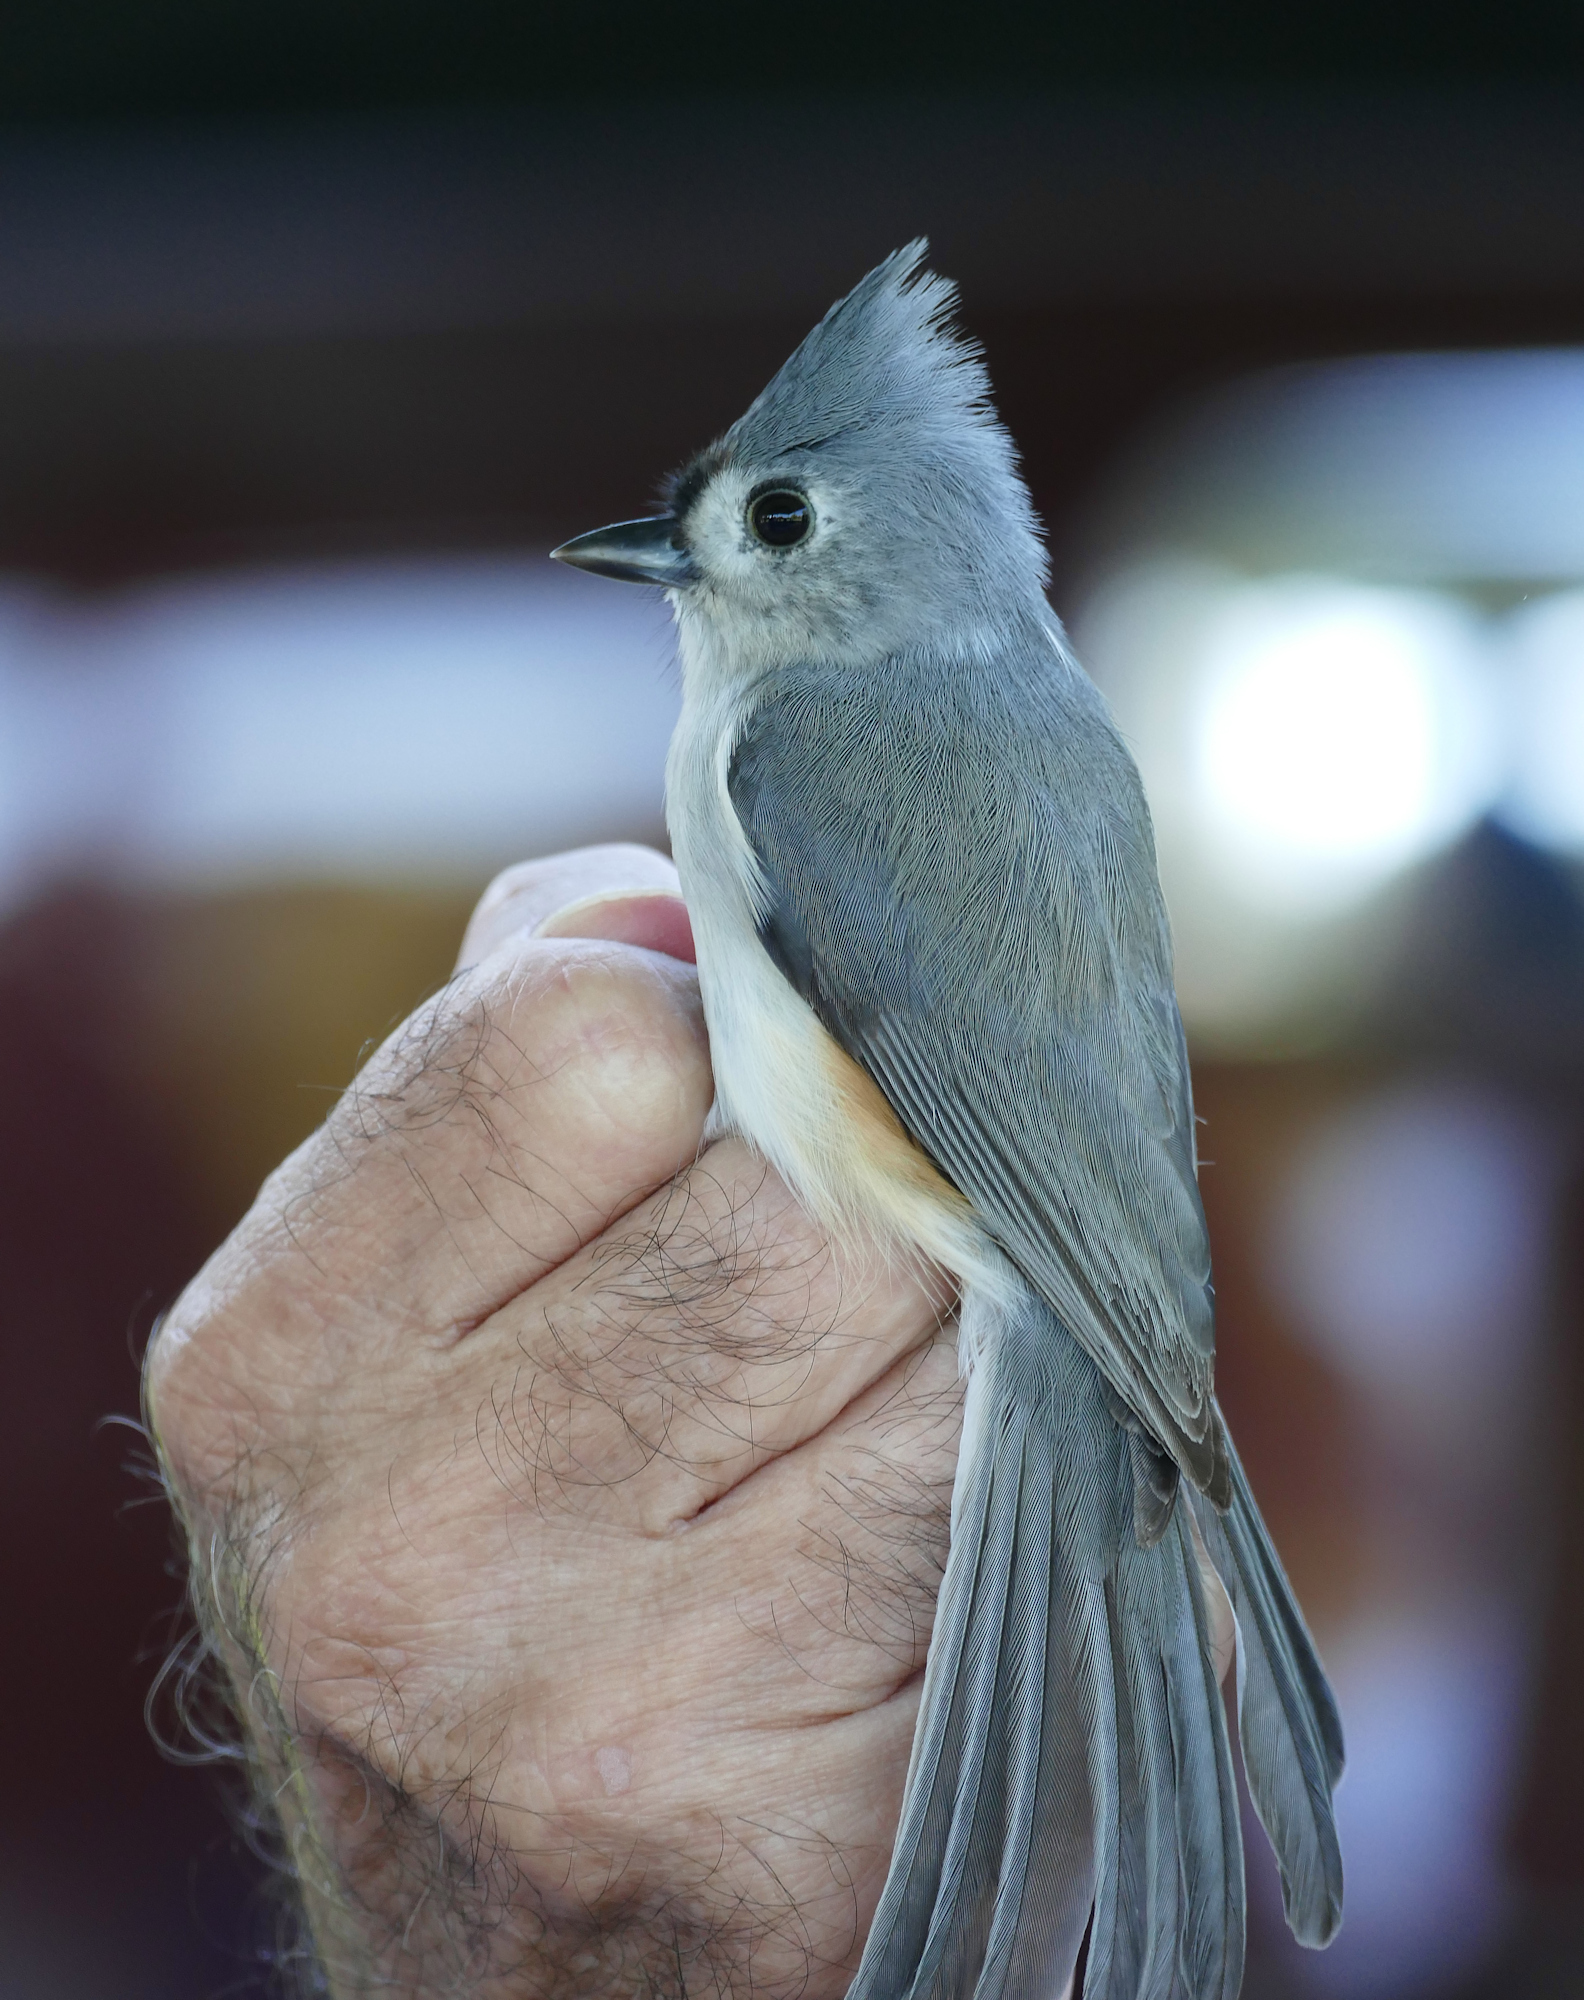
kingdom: Animalia
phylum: Chordata
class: Aves
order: Passeriformes
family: Paridae
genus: Baeolophus
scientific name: Baeolophus bicolor
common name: Tufted titmouse
